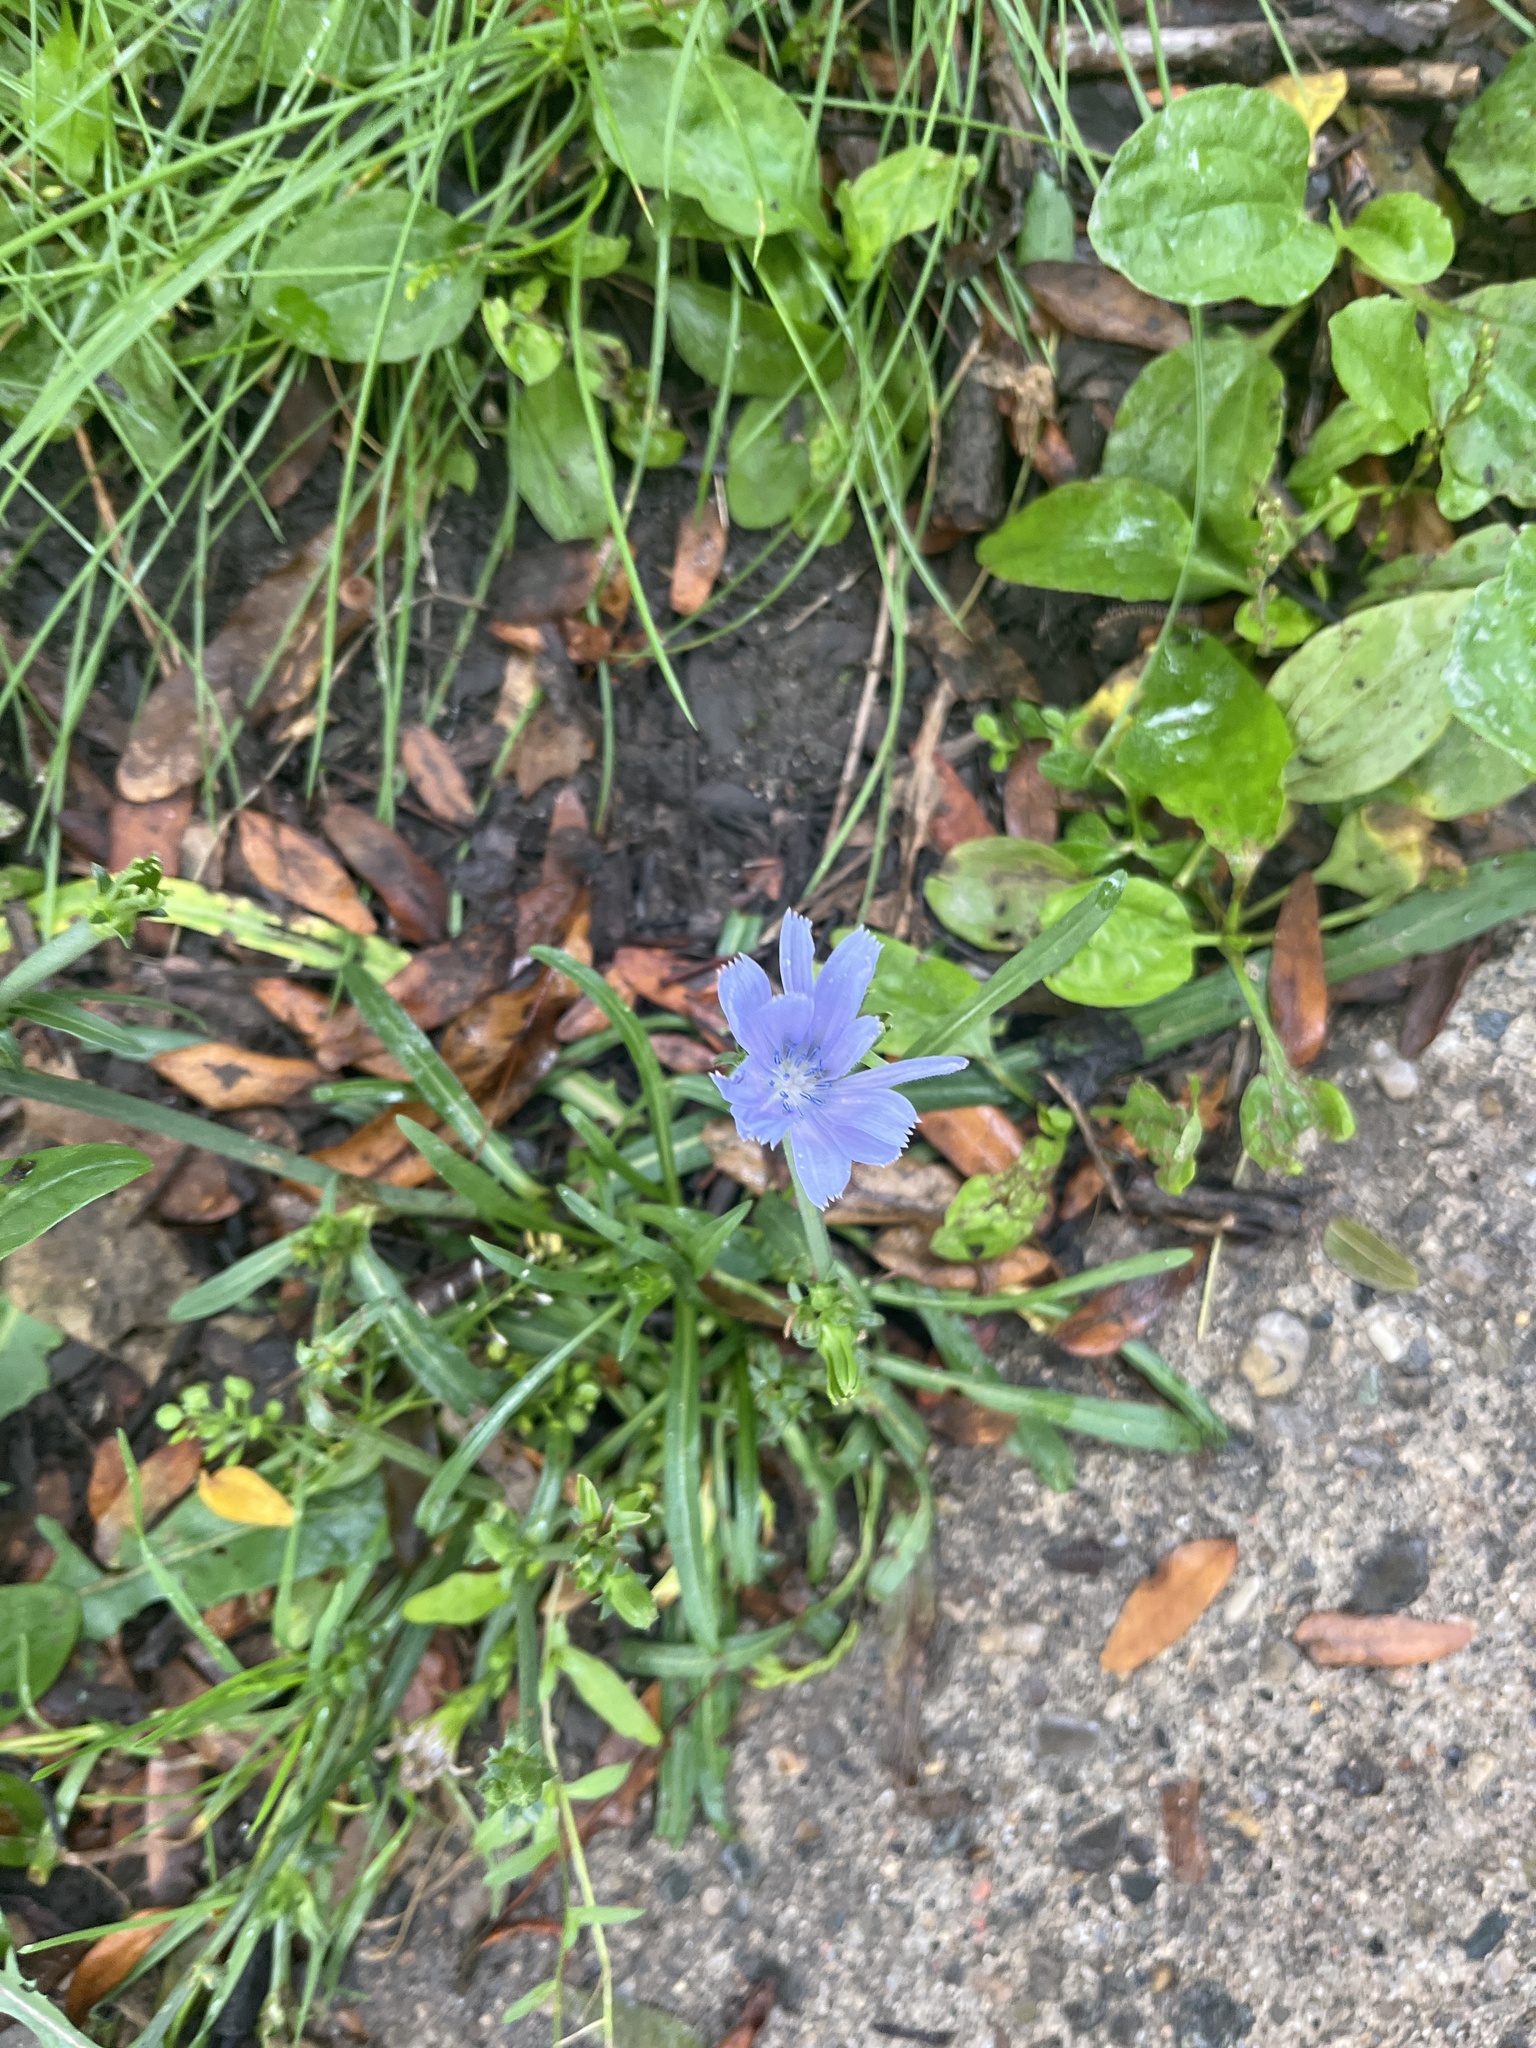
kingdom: Plantae
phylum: Tracheophyta
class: Magnoliopsida
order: Asterales
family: Asteraceae
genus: Cichorium
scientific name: Cichorium intybus
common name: Chicory
